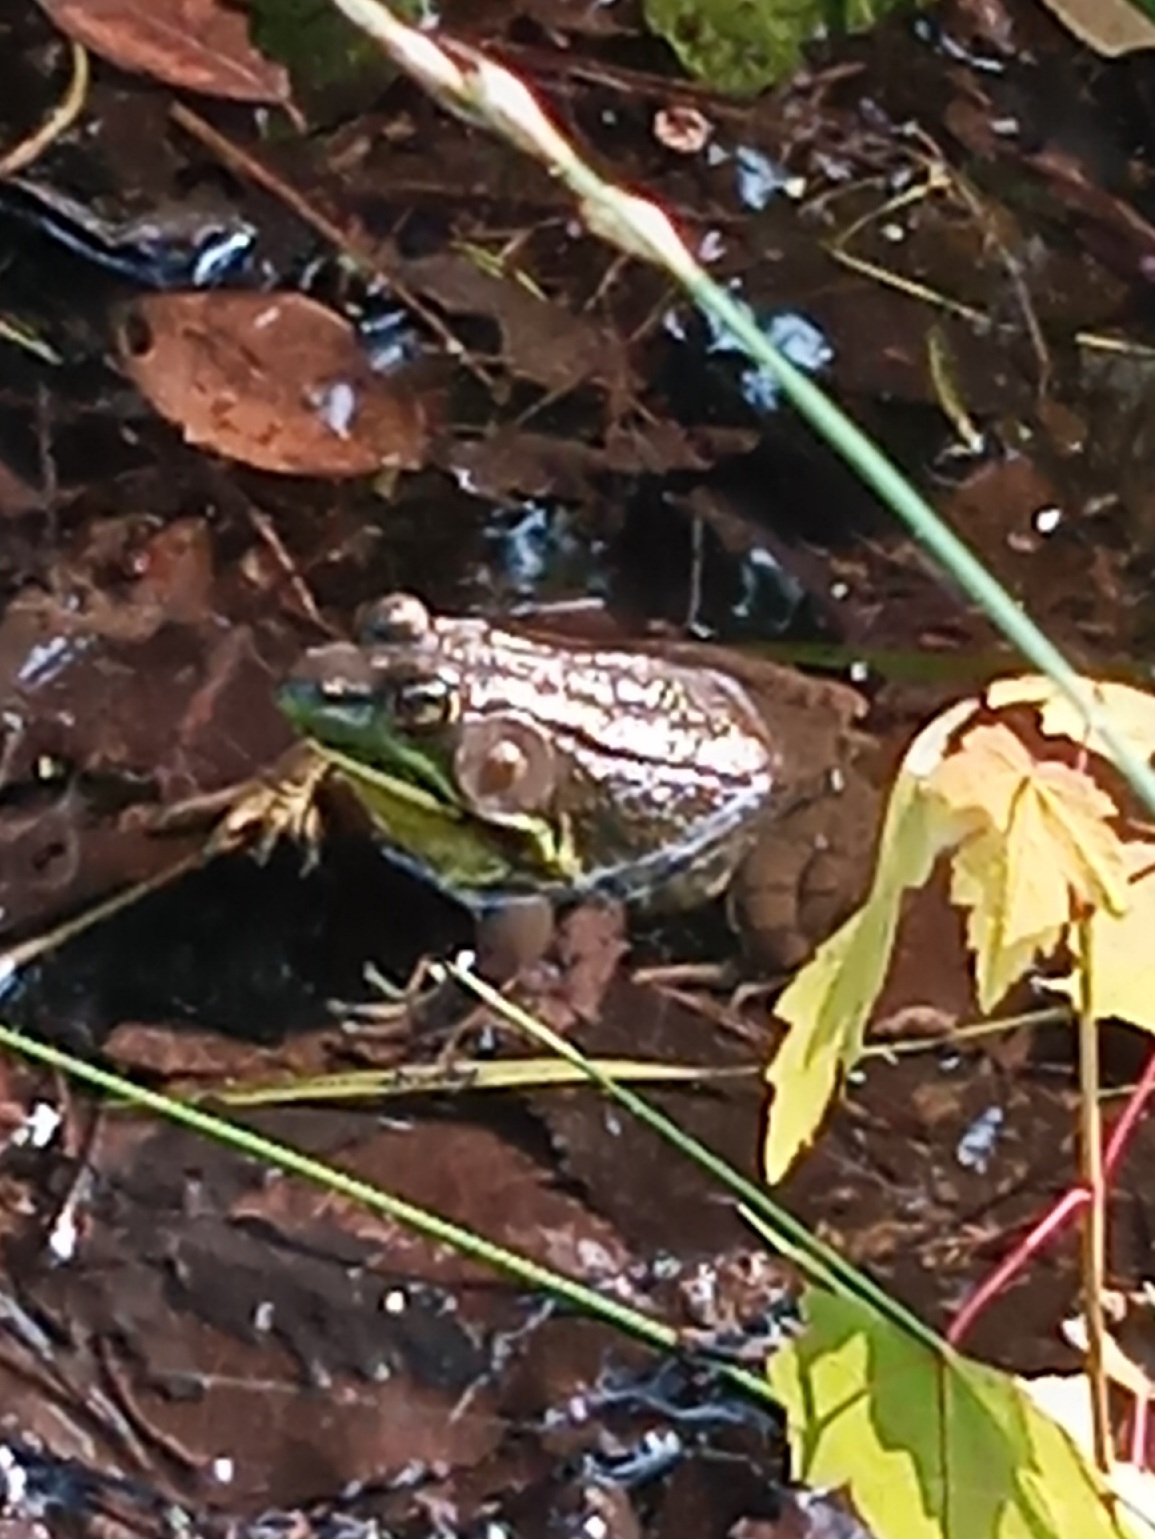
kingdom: Animalia
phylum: Chordata
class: Amphibia
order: Anura
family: Ranidae
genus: Lithobates
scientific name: Lithobates clamitans
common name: Green frog
